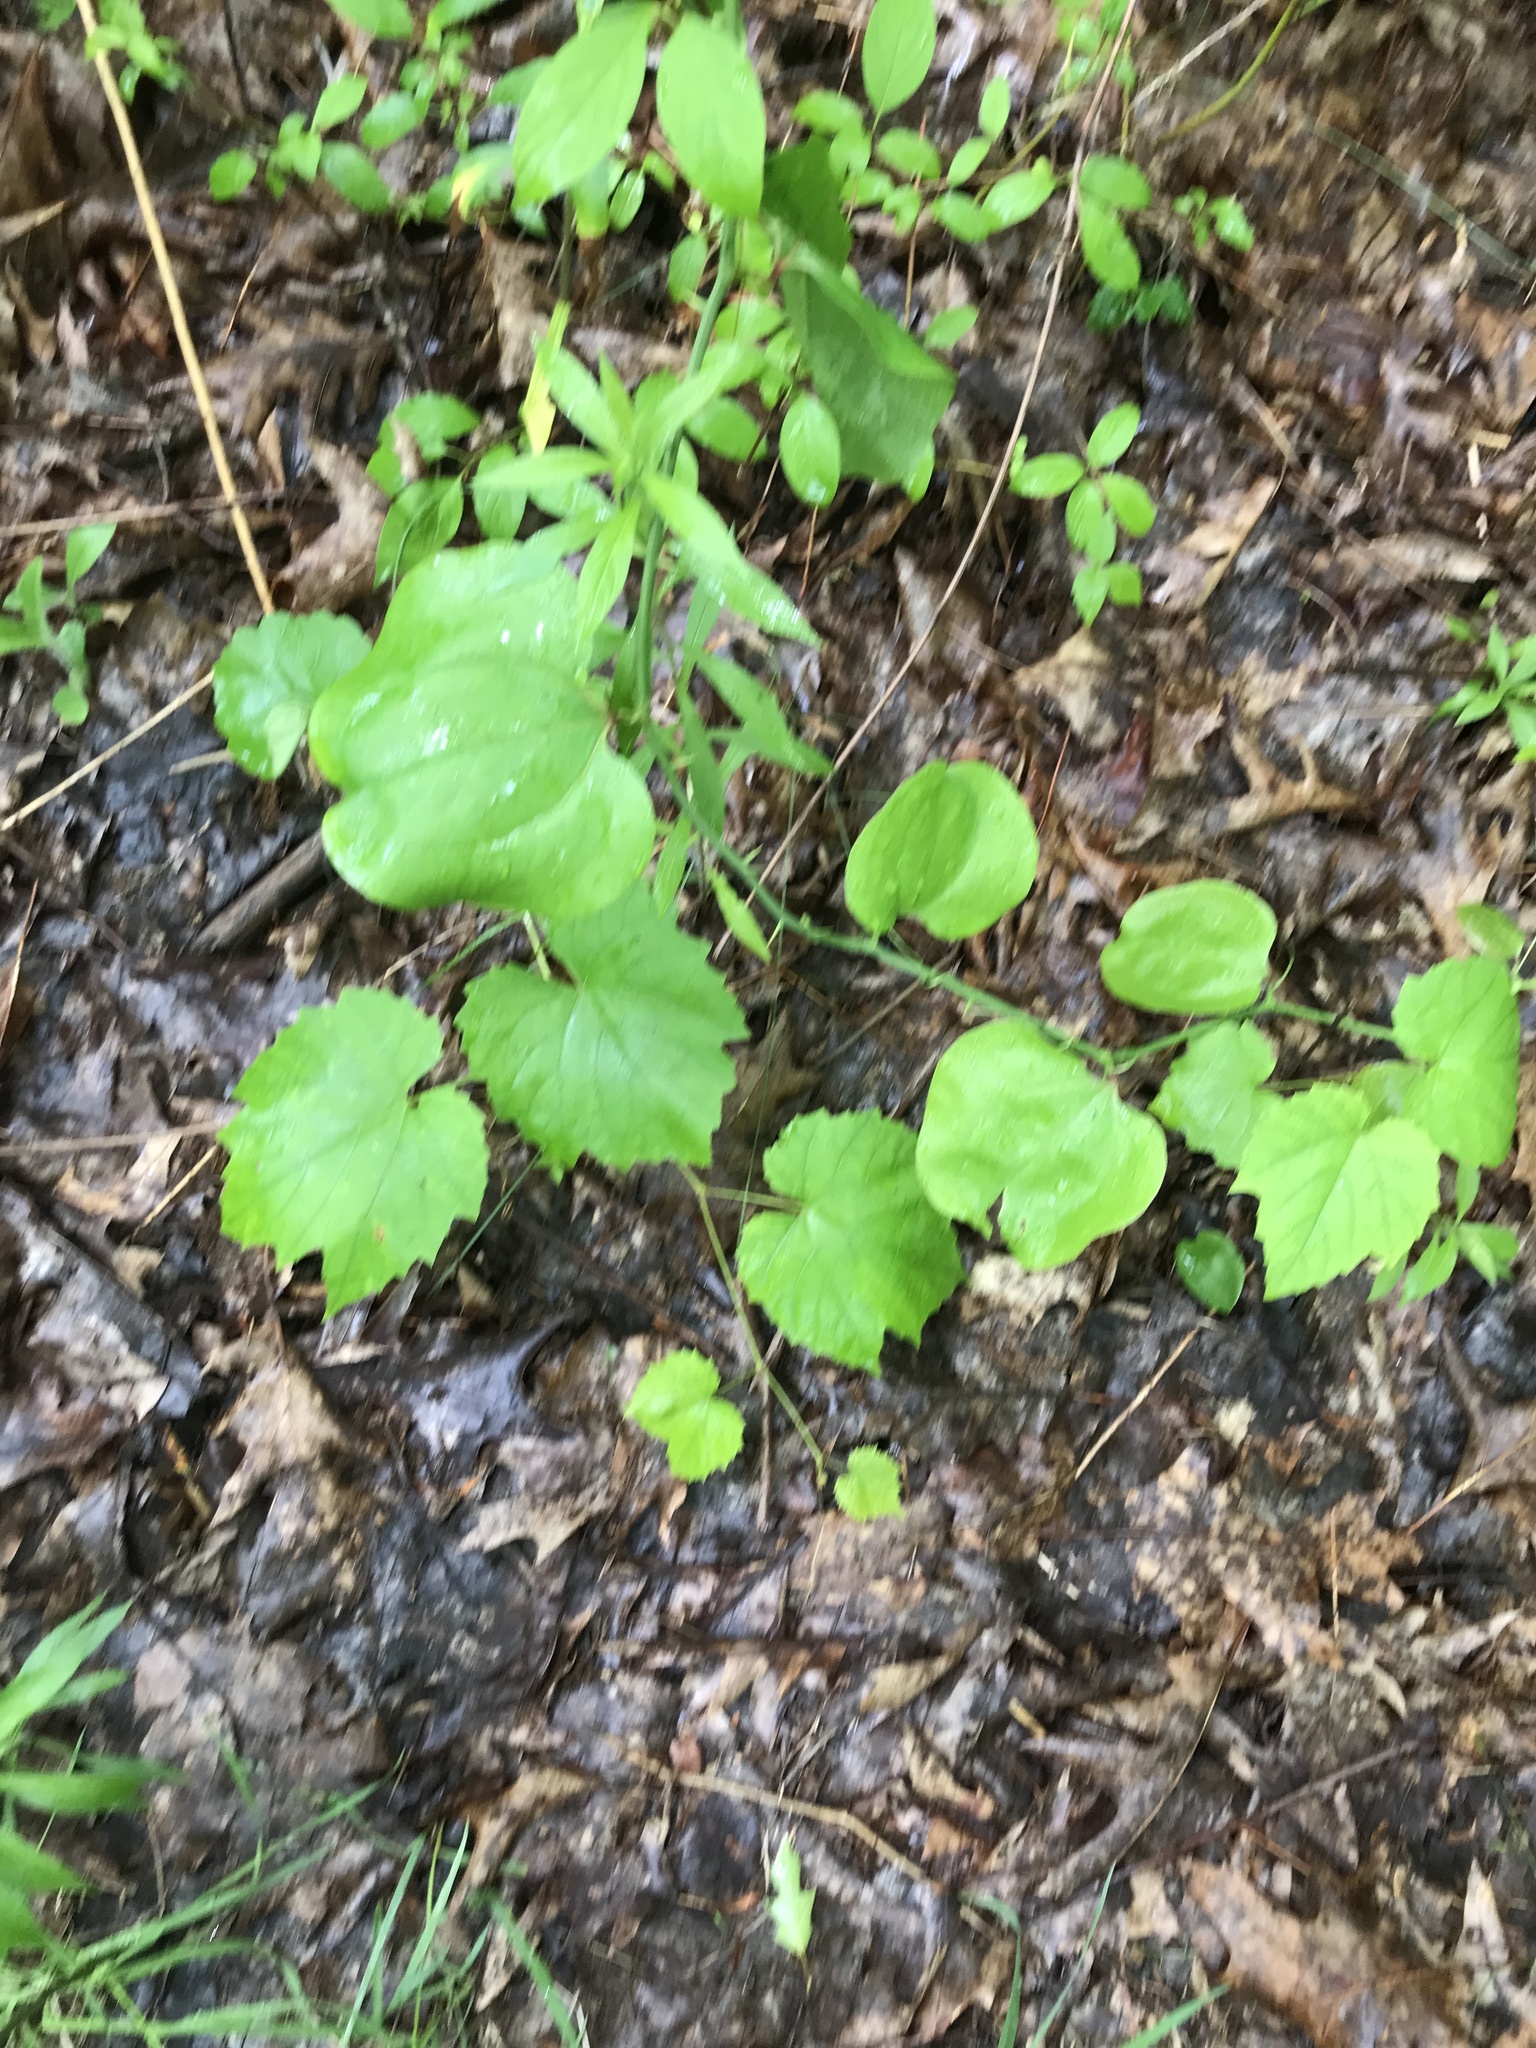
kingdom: Plantae
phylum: Tracheophyta
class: Liliopsida
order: Liliales
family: Smilacaceae
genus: Smilax
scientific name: Smilax rotundifolia
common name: Bullbriar
